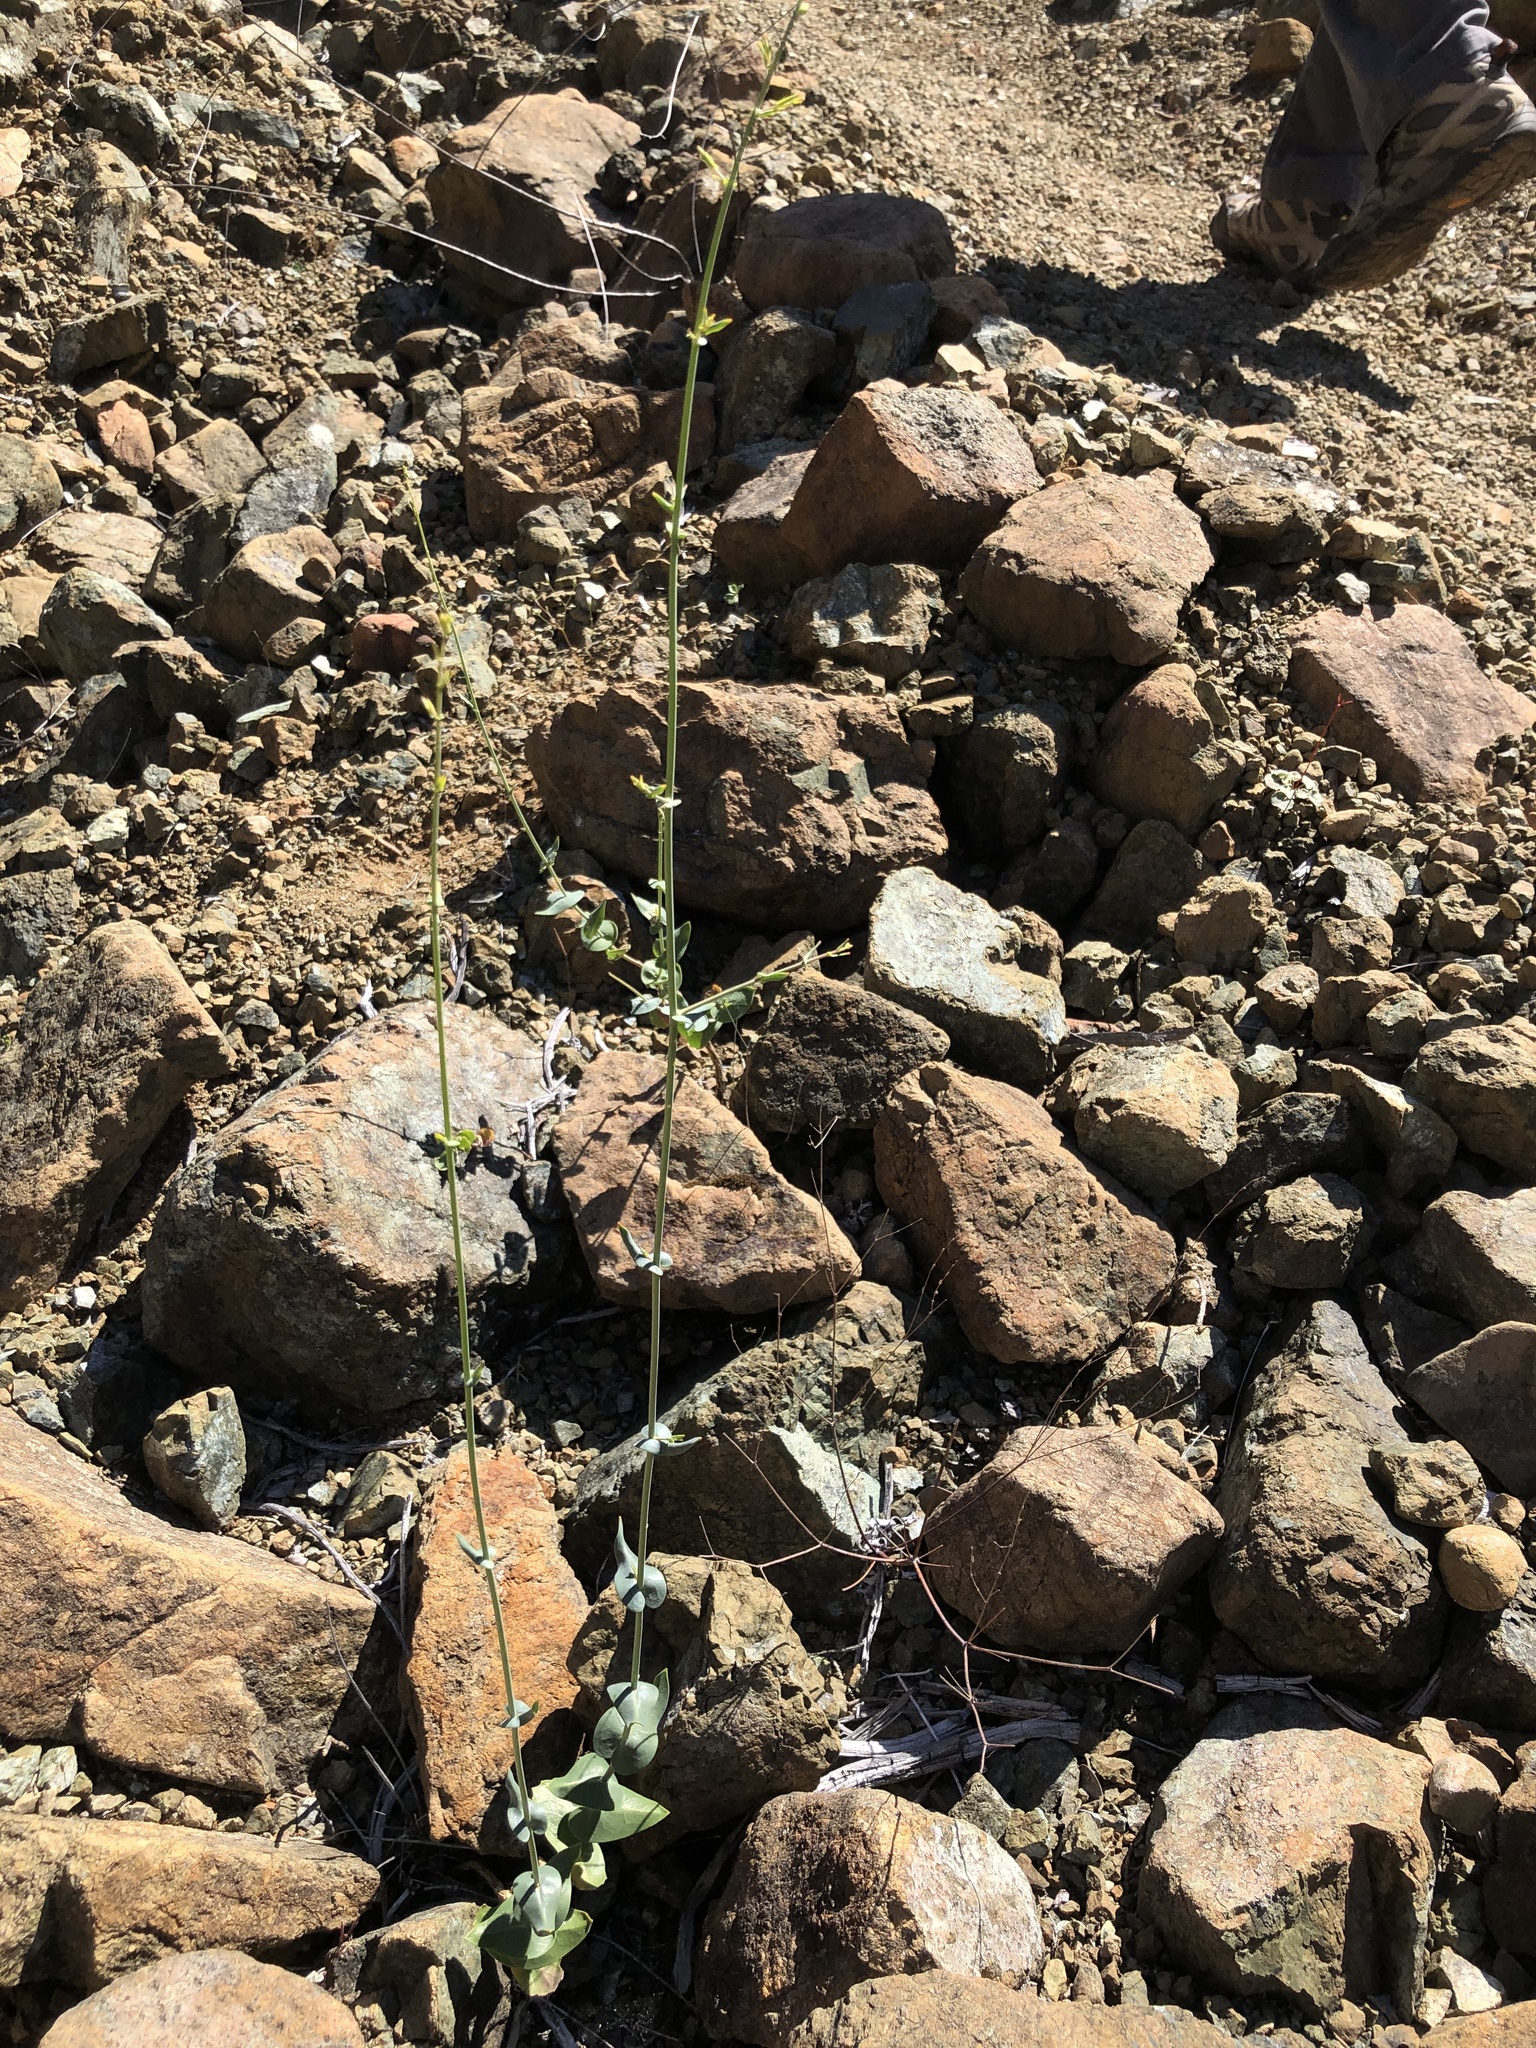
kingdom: Plantae
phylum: Tracheophyta
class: Magnoliopsida
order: Brassicales
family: Brassicaceae
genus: Streptanthus
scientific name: Streptanthus morrisonii
